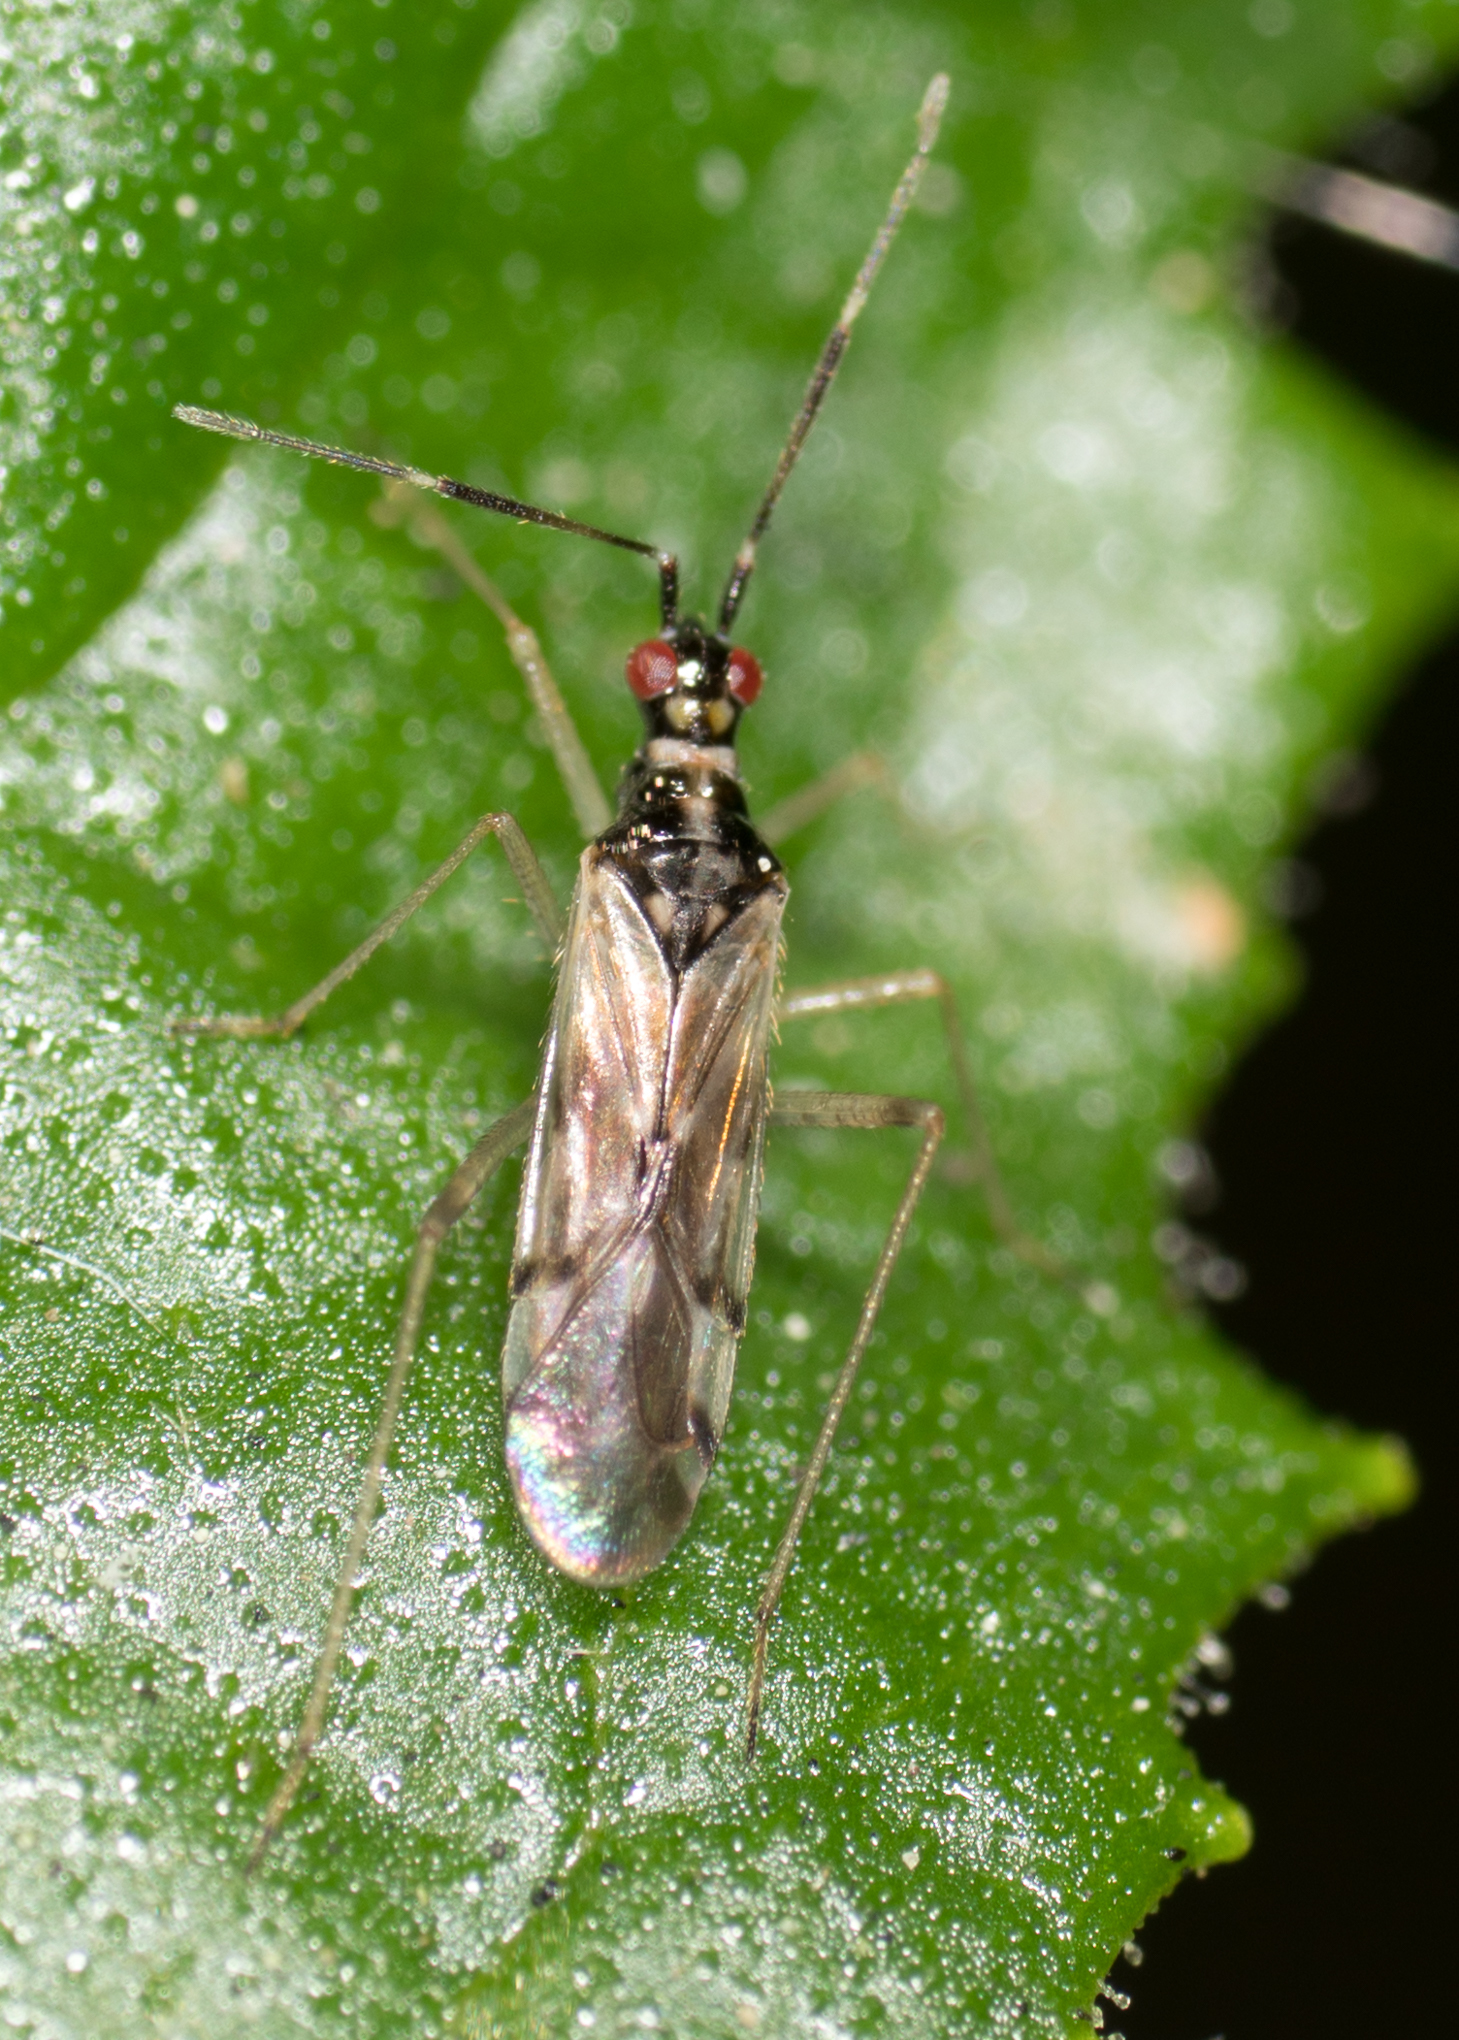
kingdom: Animalia
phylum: Arthropoda
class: Insecta
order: Hemiptera
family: Miridae
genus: Dicyphus
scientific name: Dicyphus hesperus
